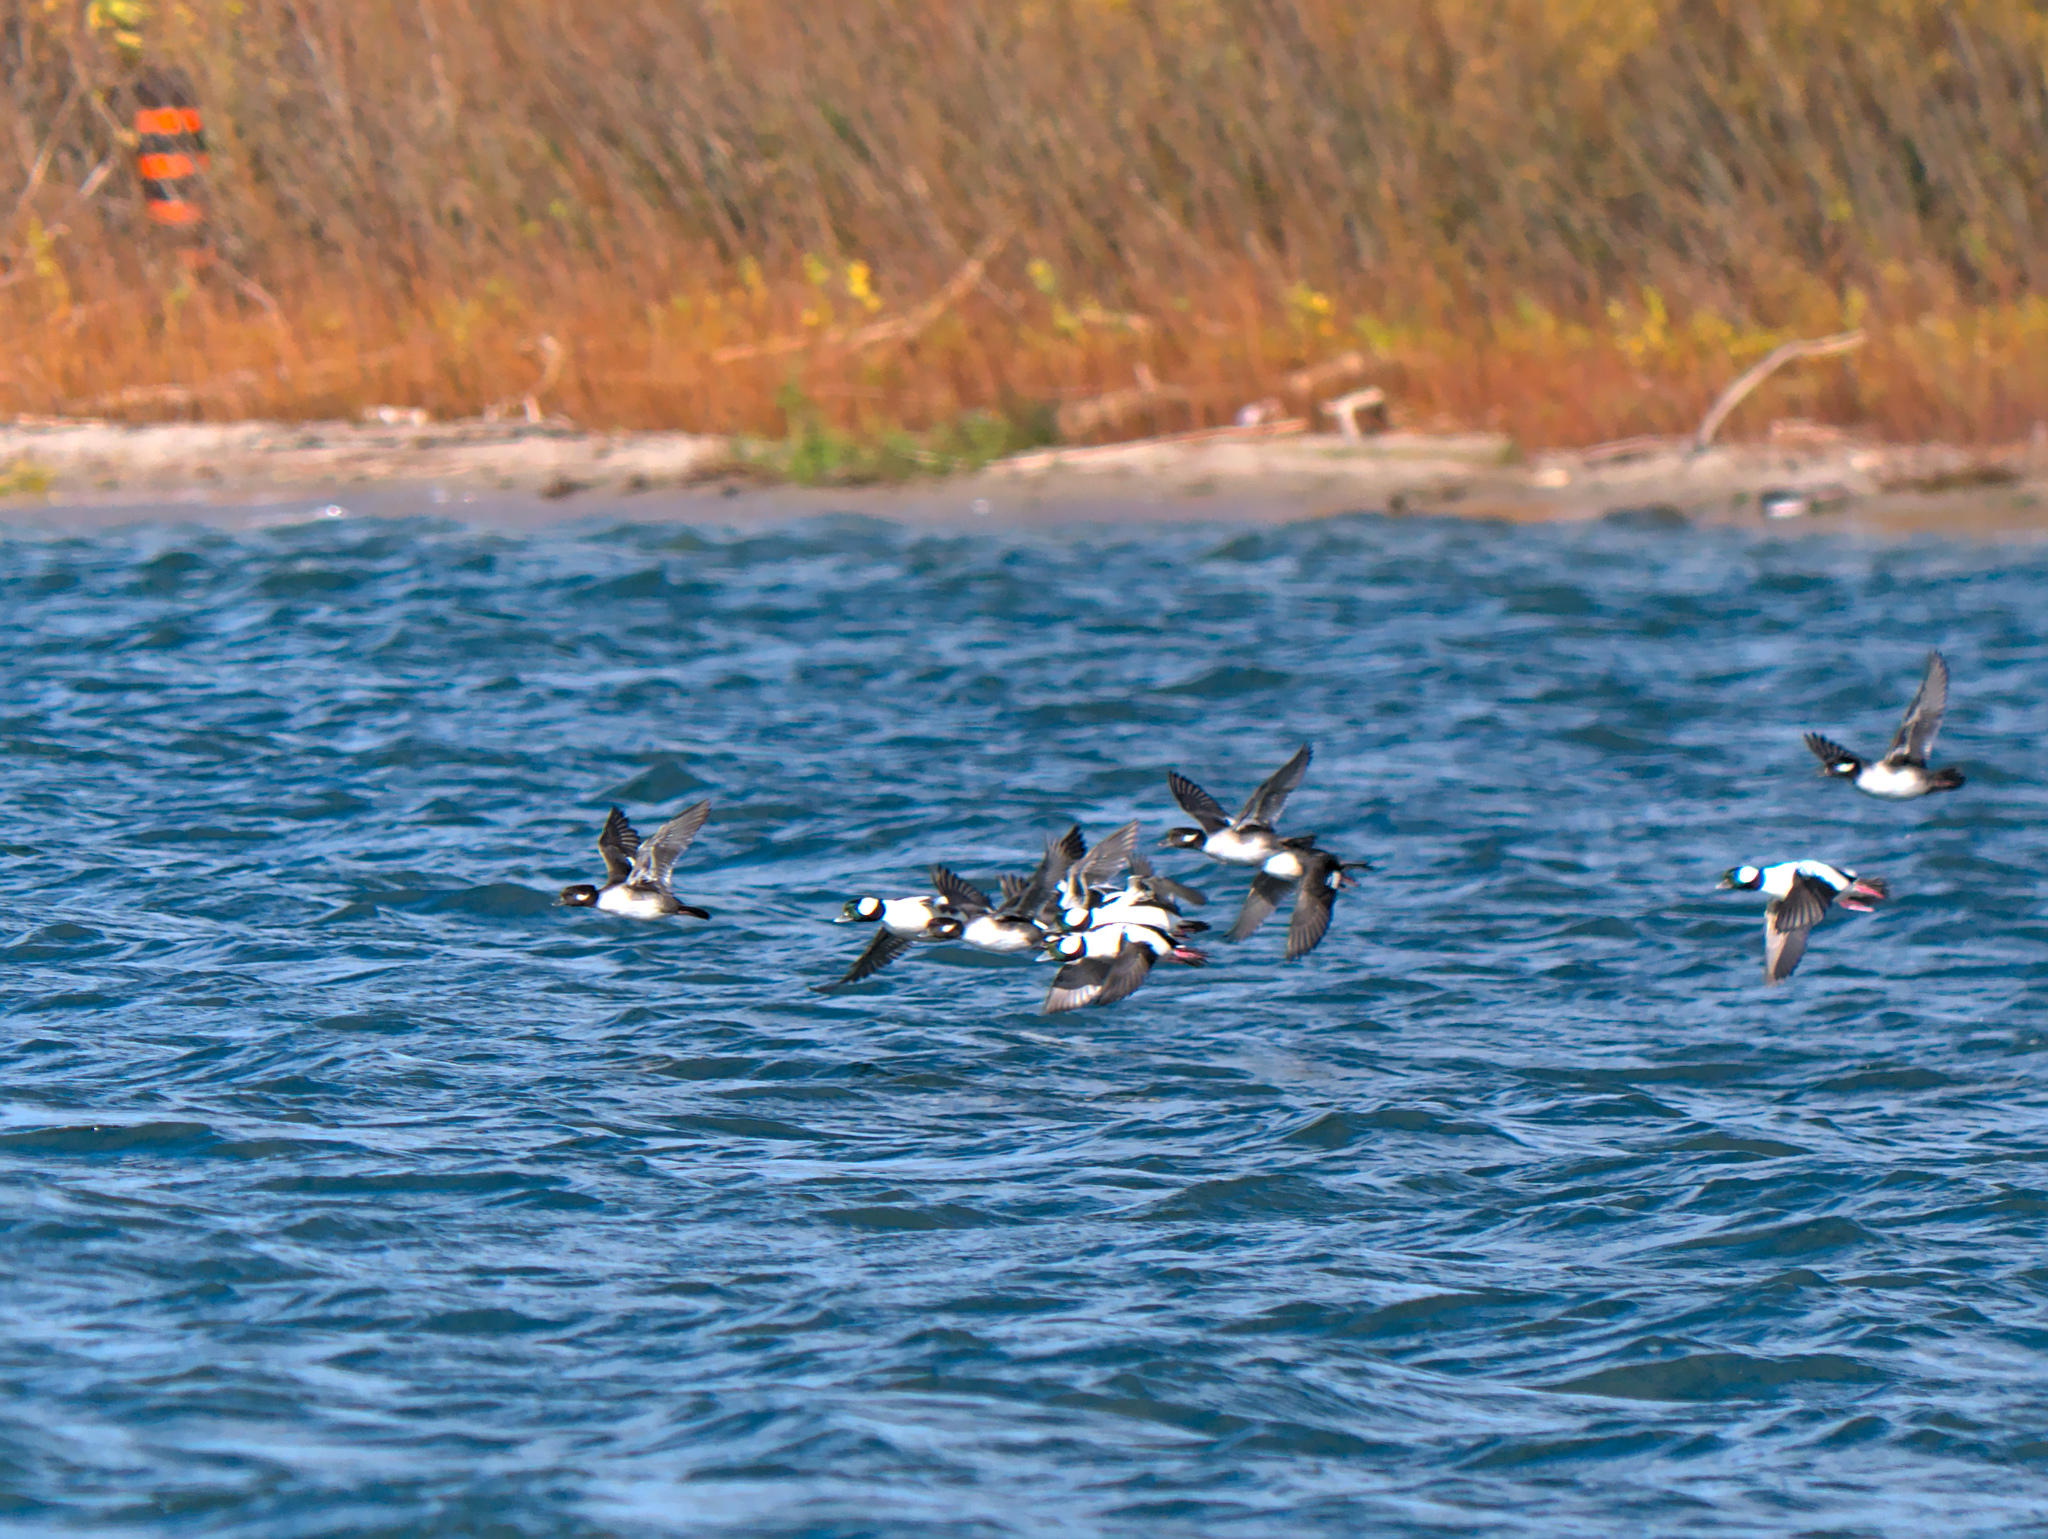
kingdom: Animalia
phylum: Chordata
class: Aves
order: Anseriformes
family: Anatidae
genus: Bucephala
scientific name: Bucephala albeola
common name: Bufflehead
